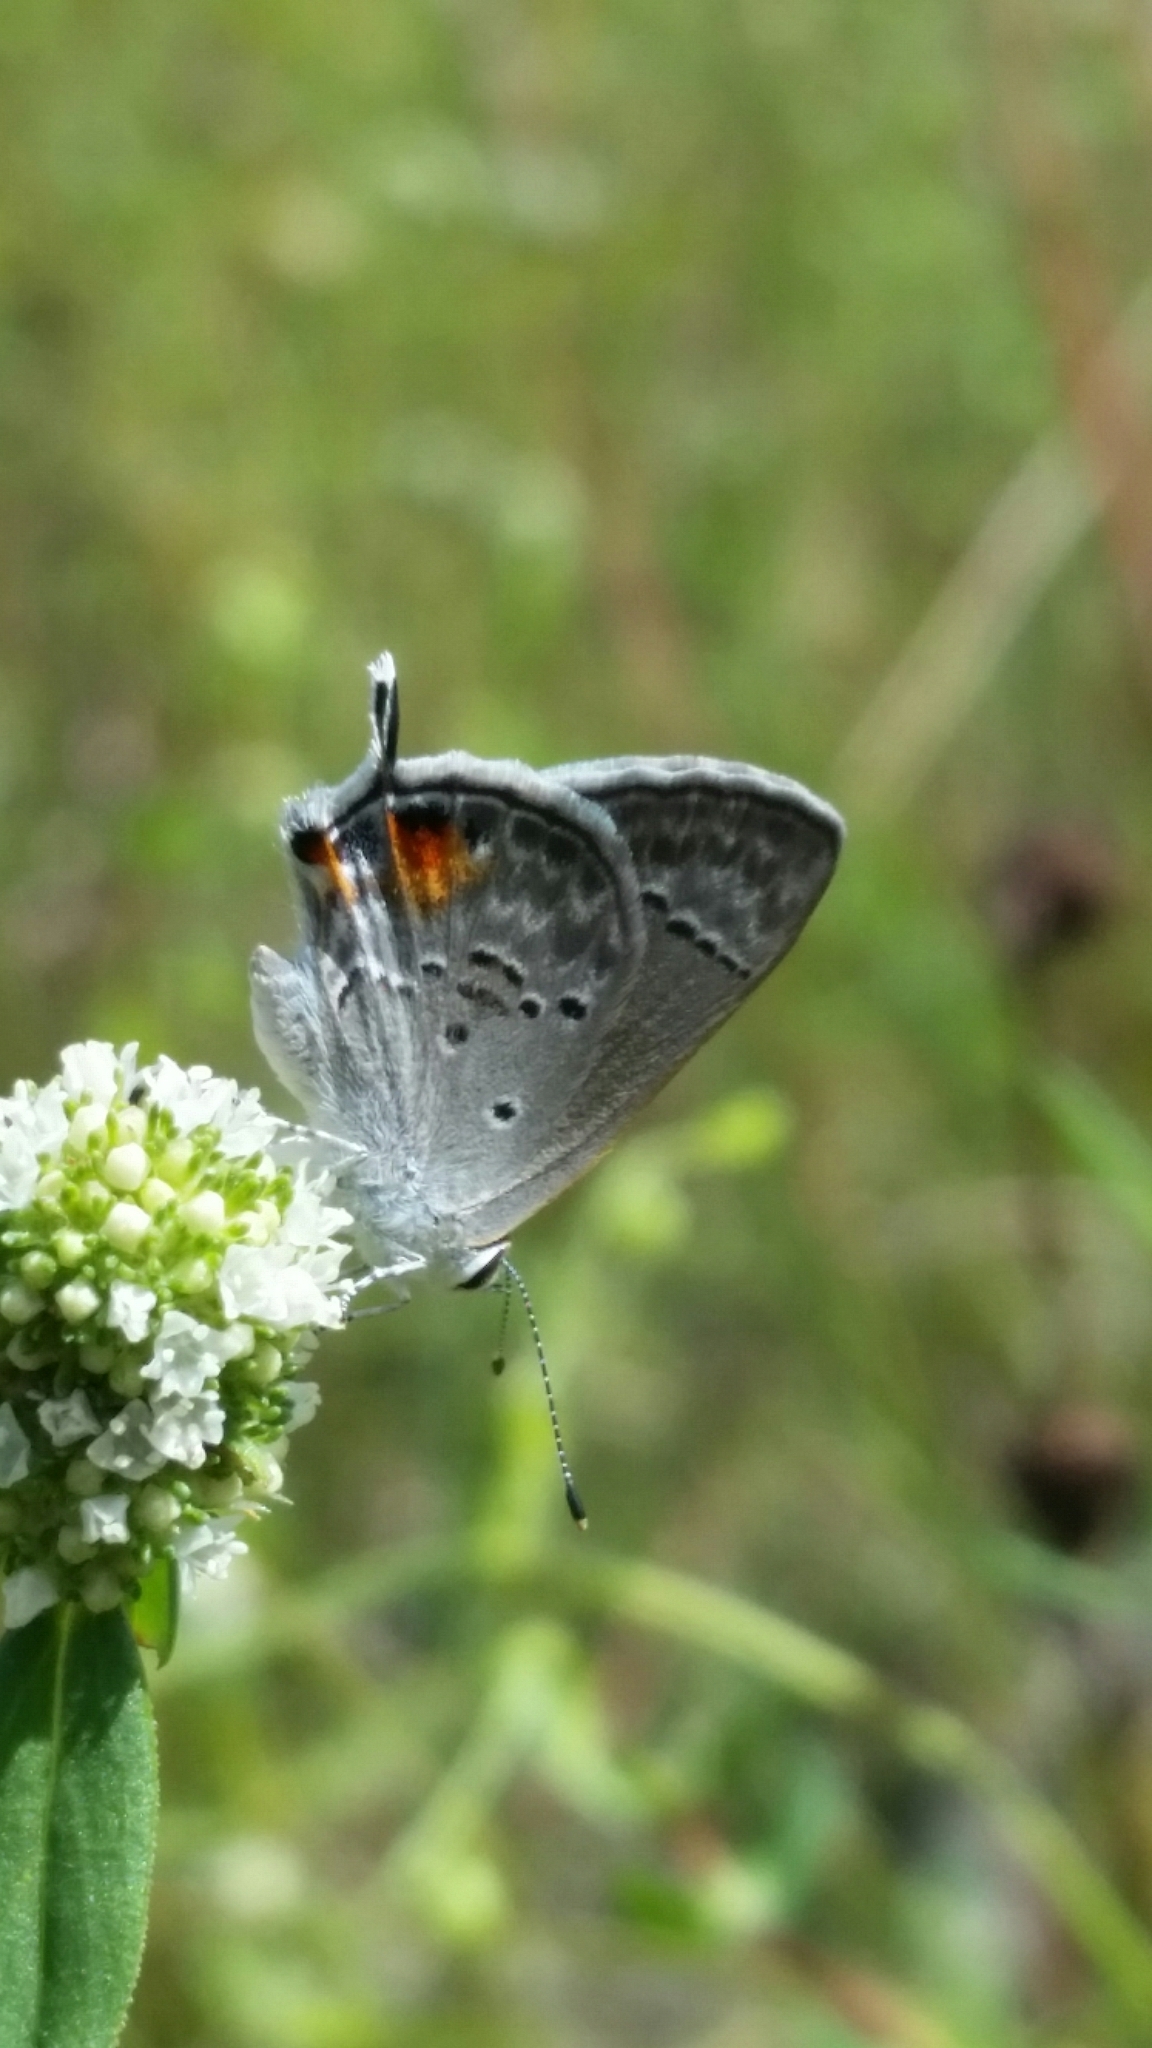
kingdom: Animalia
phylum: Arthropoda
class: Insecta
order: Lepidoptera
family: Lycaenidae
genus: Callicista
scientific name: Callicista columella
